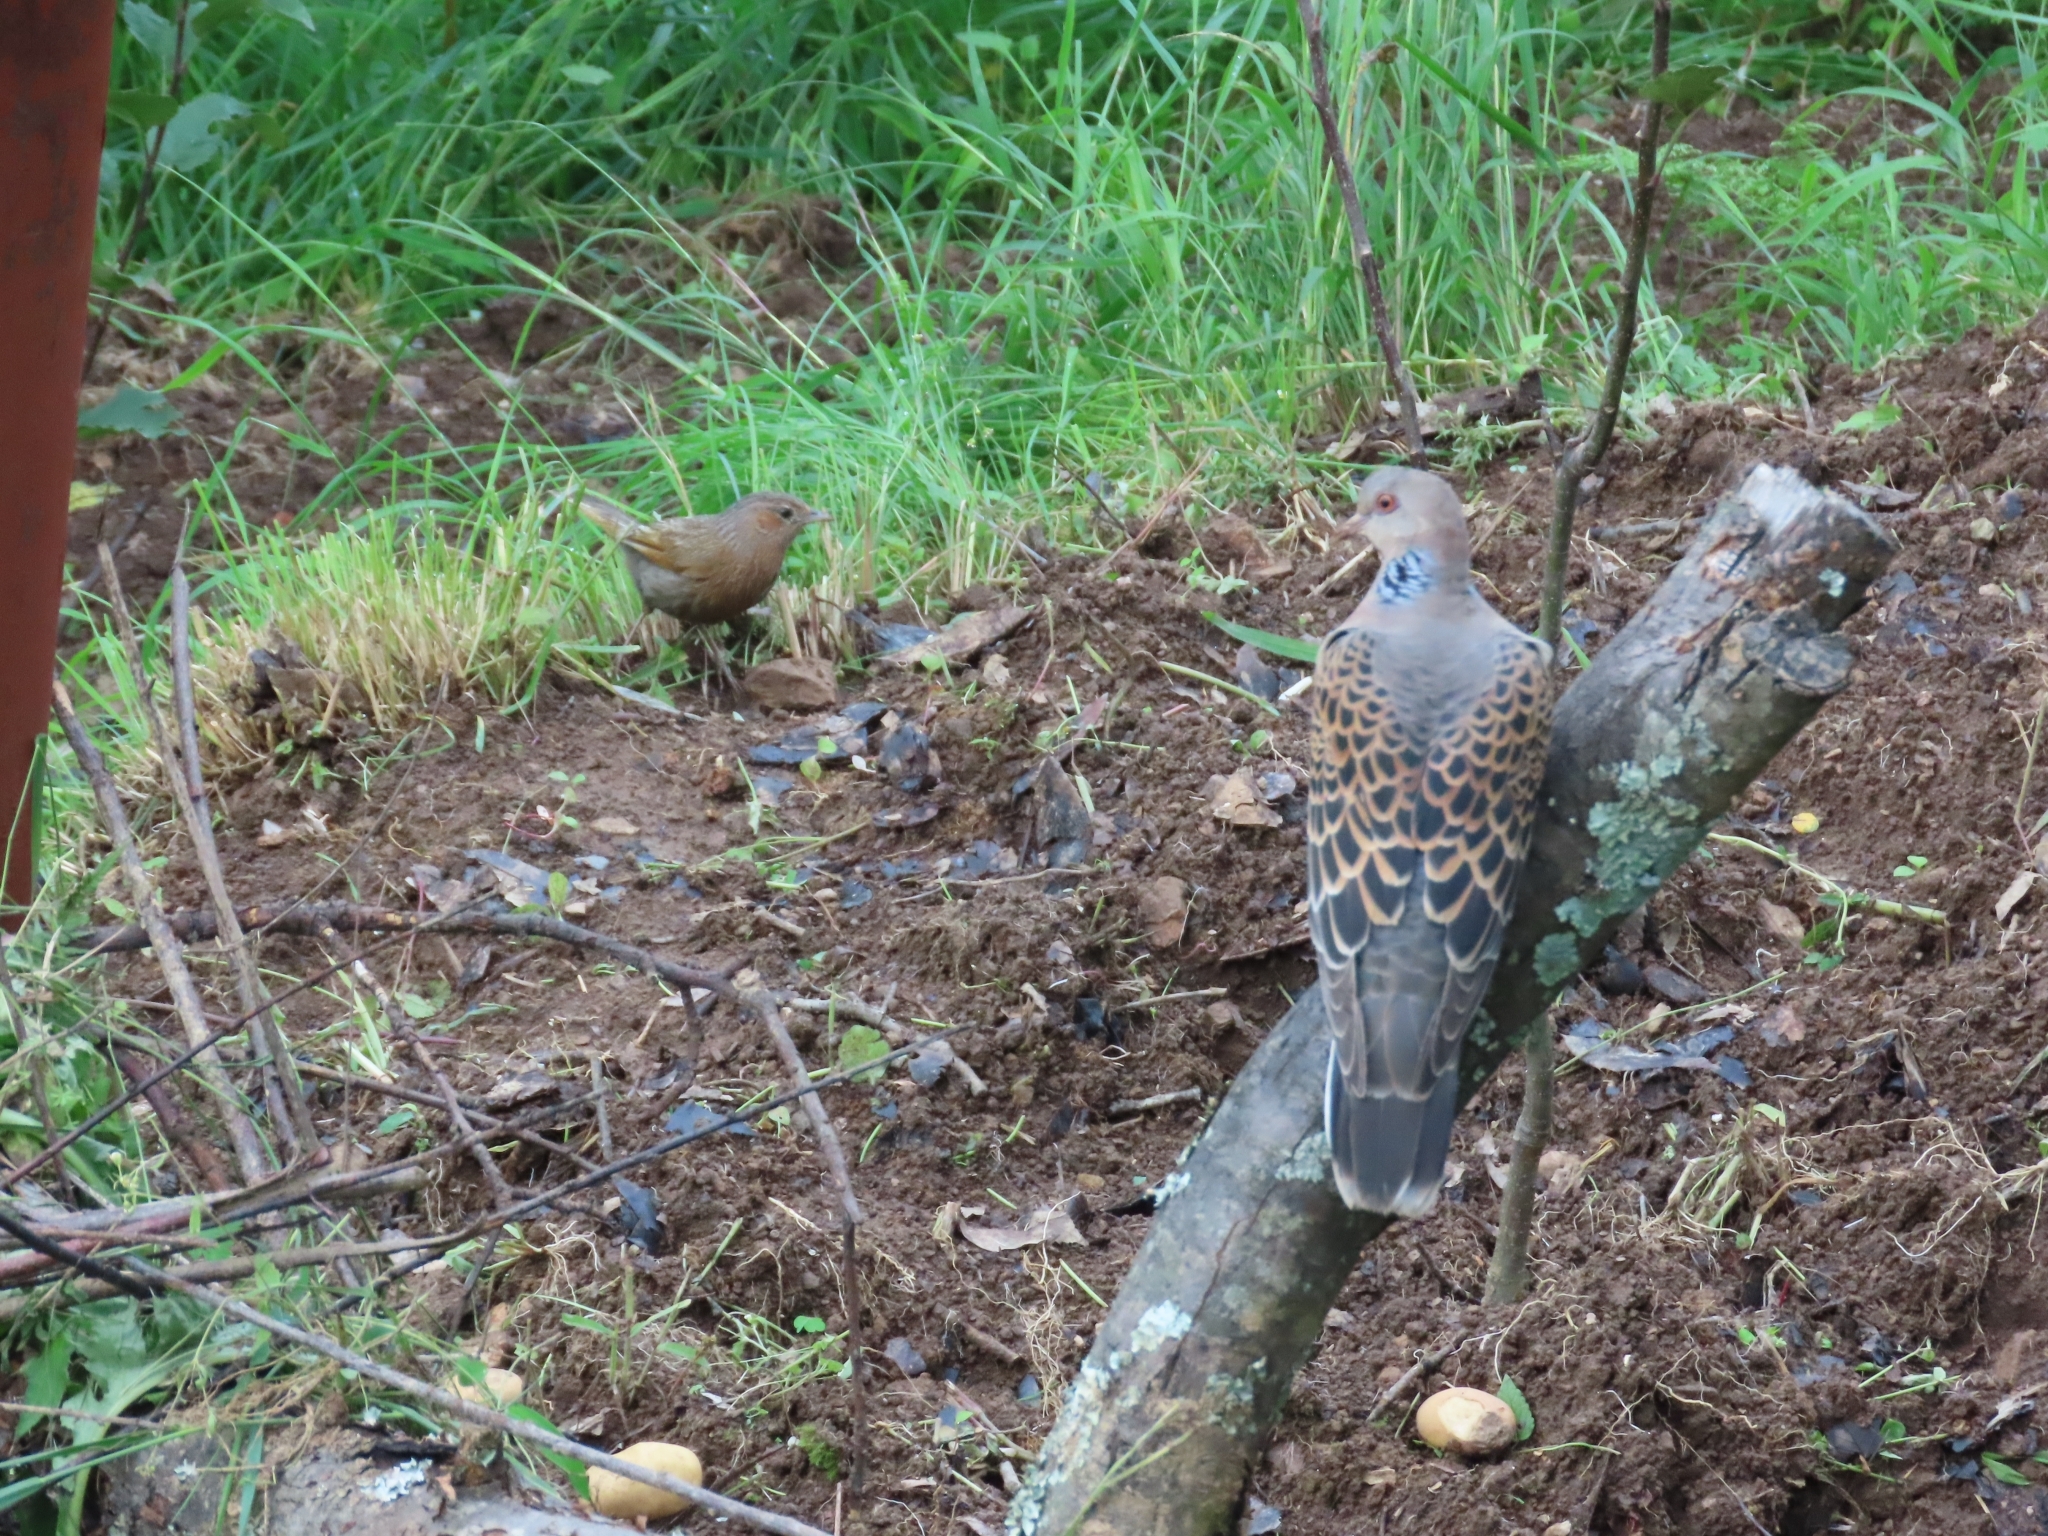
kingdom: Animalia
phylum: Chordata
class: Aves
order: Columbiformes
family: Columbidae
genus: Streptopelia
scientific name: Streptopelia orientalis
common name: Oriental turtle dove
